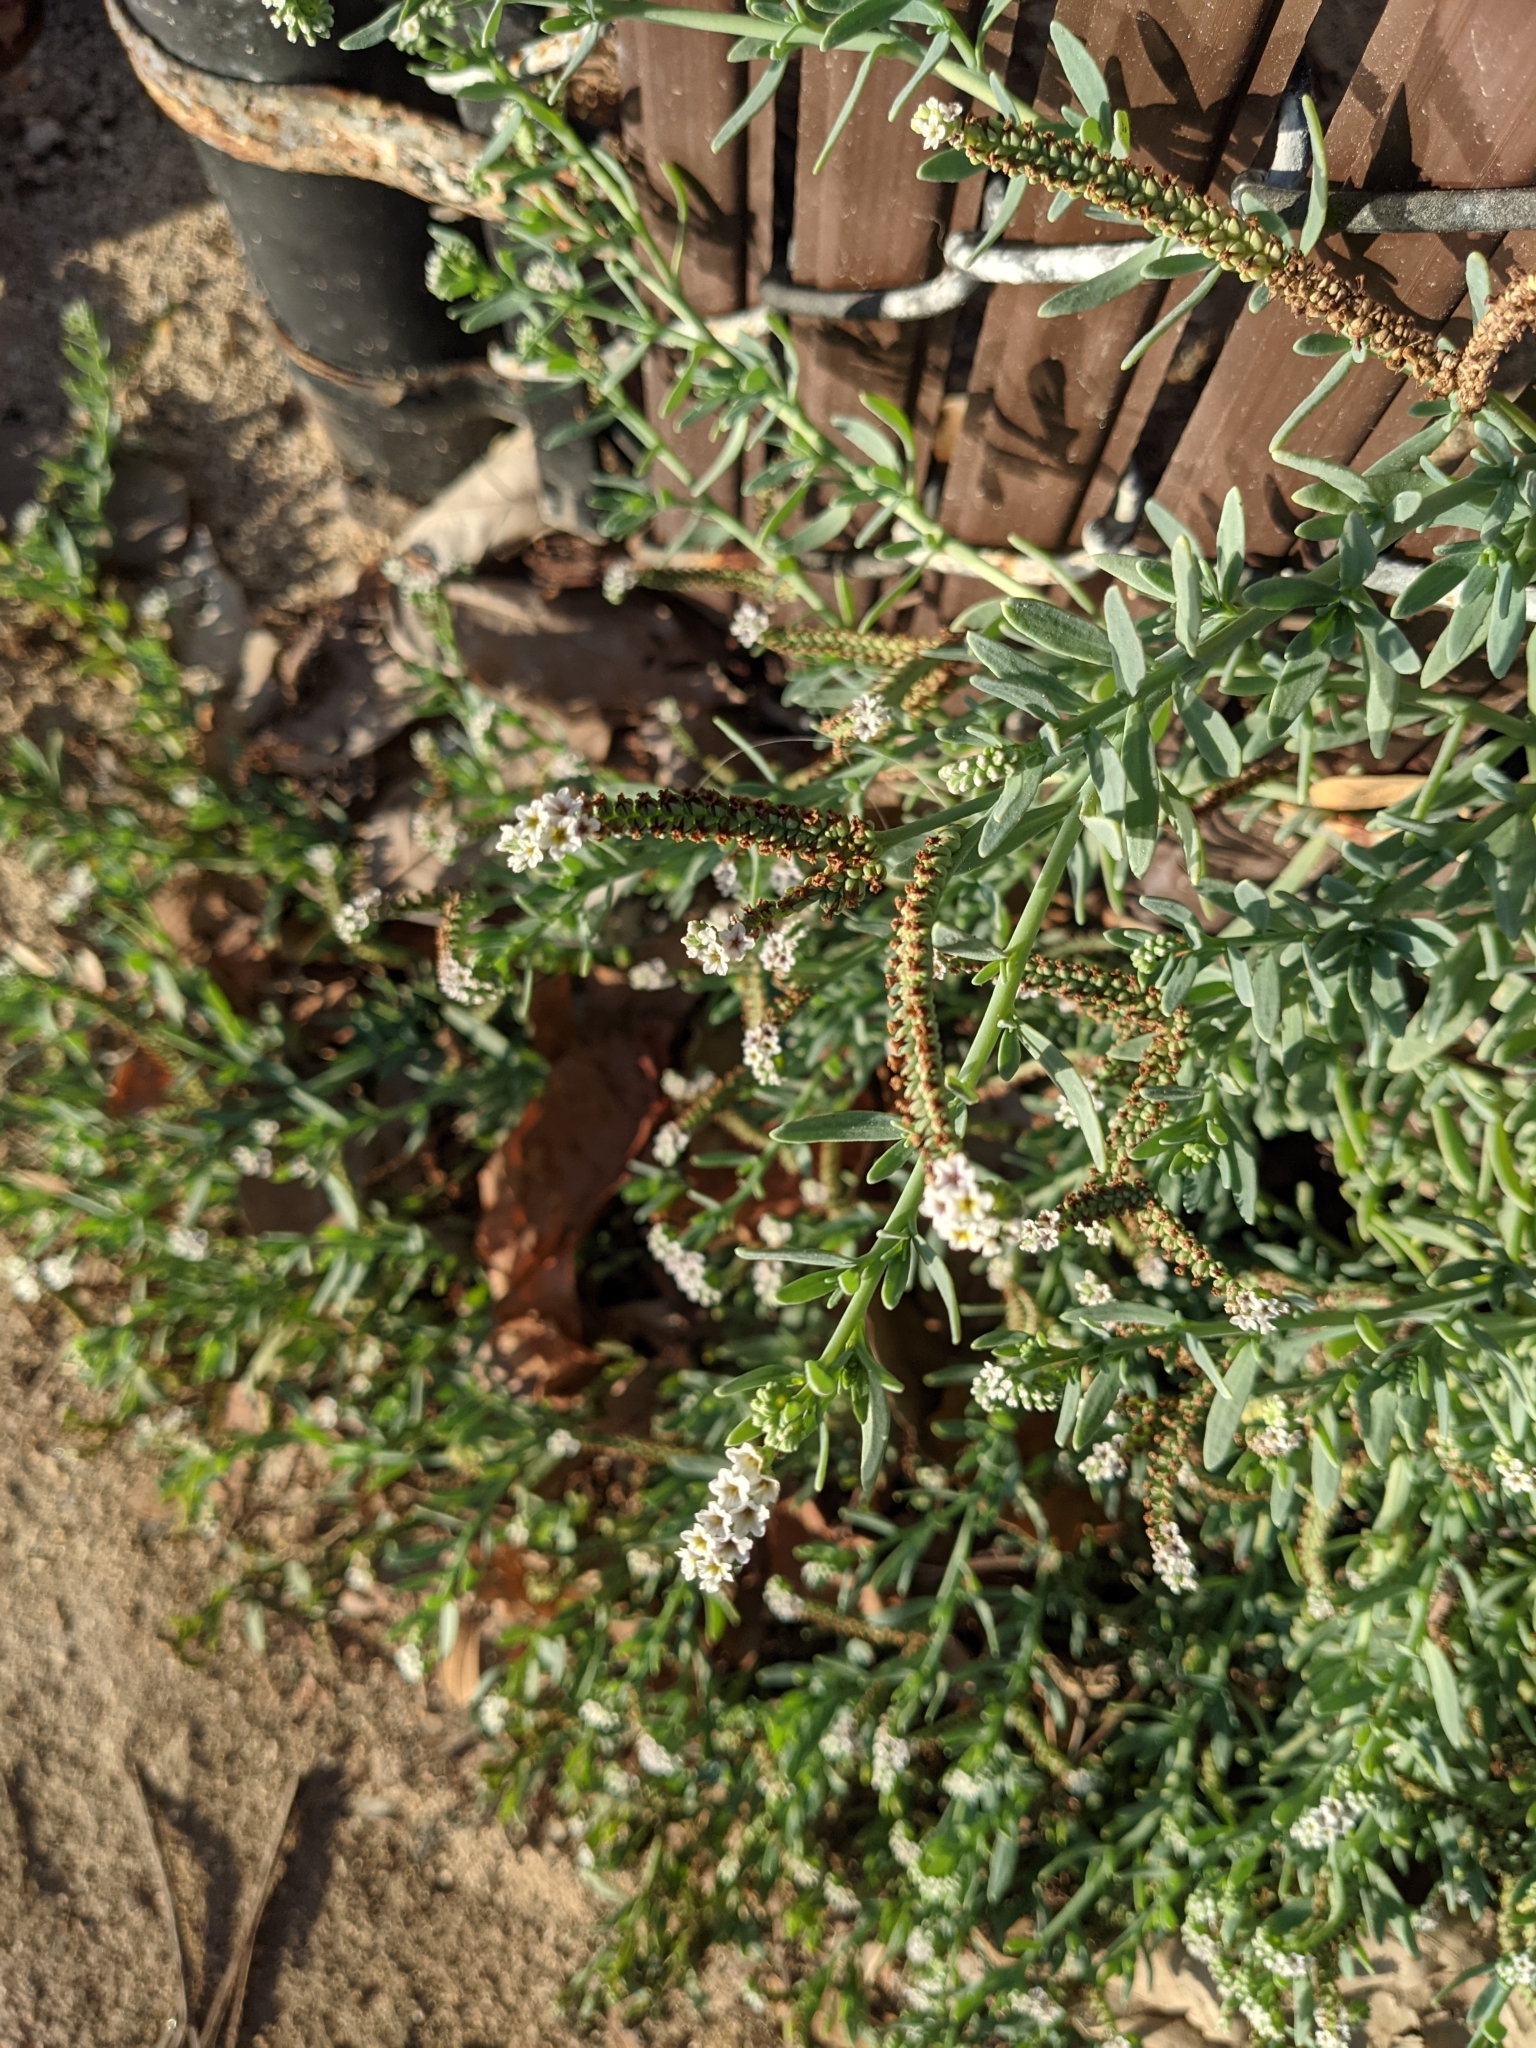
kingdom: Plantae
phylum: Tracheophyta
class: Magnoliopsida
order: Boraginales
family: Heliotropiaceae
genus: Heliotropium
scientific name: Heliotropium curassavicum
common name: Seaside heliotrope
